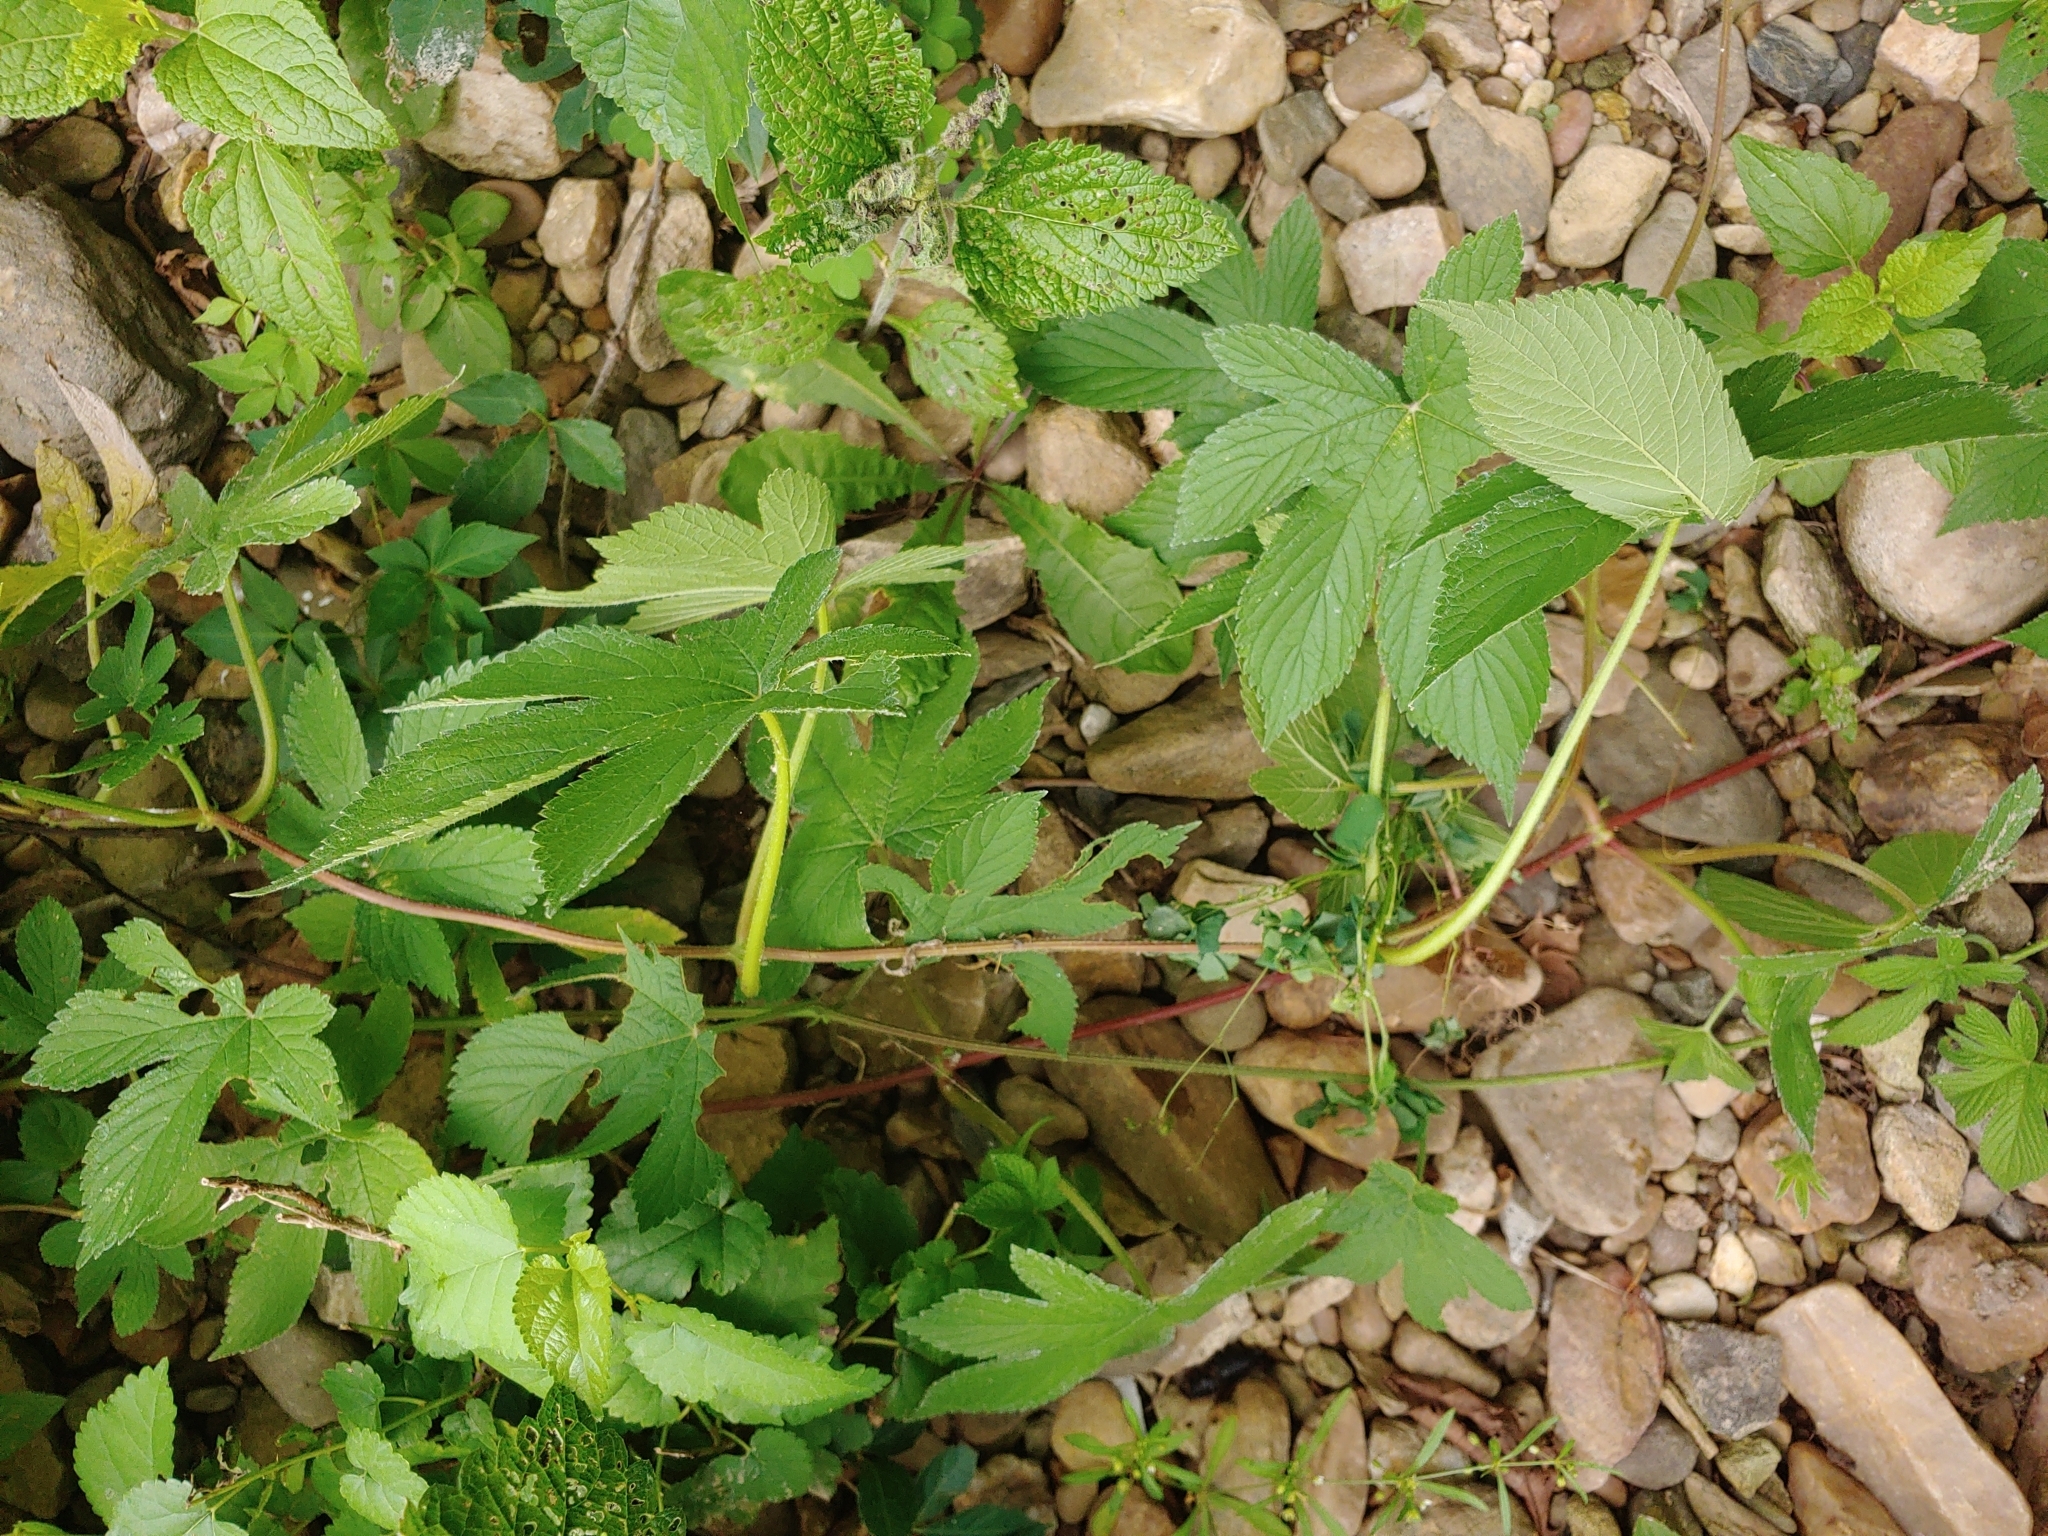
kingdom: Plantae
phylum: Tracheophyta
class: Magnoliopsida
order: Rosales
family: Cannabaceae
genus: Humulus
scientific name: Humulus scandens
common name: Japanese hop
